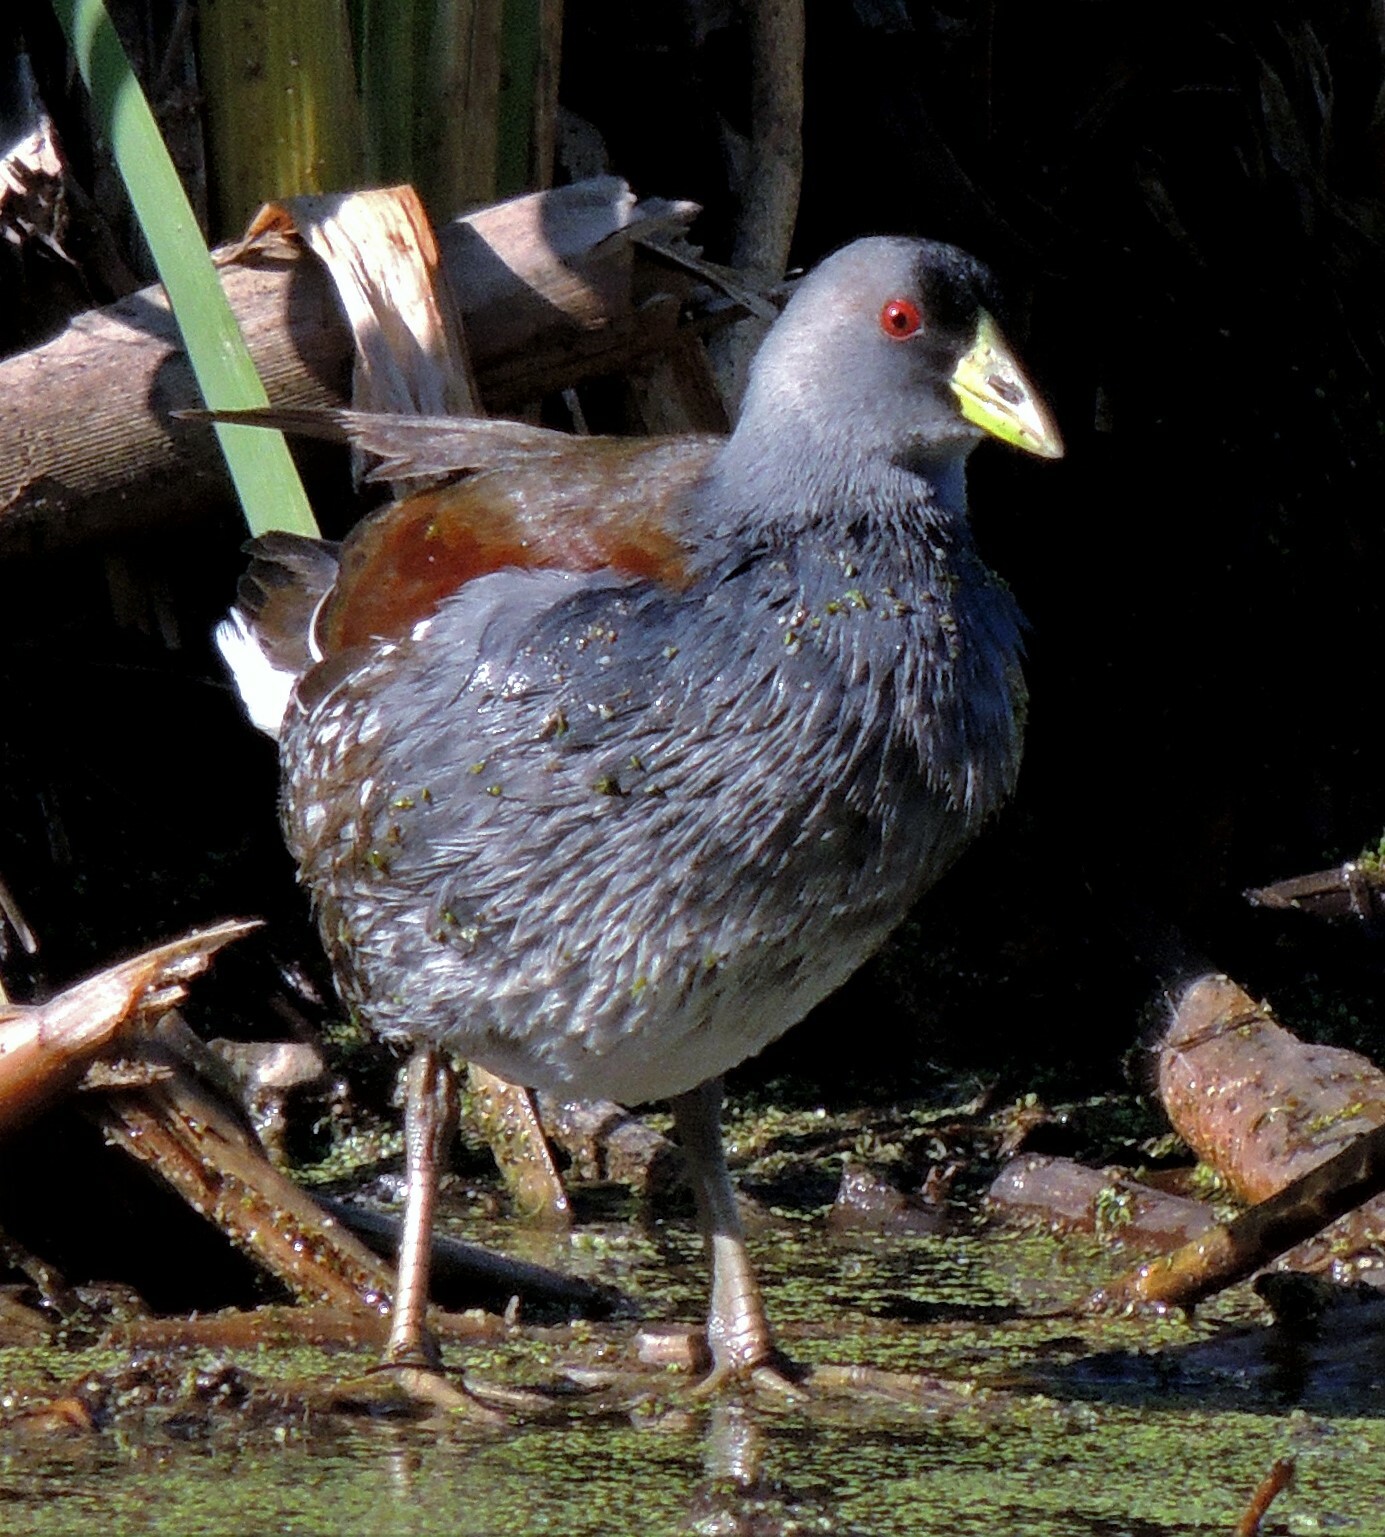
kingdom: Animalia
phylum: Chordata
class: Aves
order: Gruiformes
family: Rallidae
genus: Gallinula
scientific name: Gallinula melanops
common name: Spot-flanked gallinule
